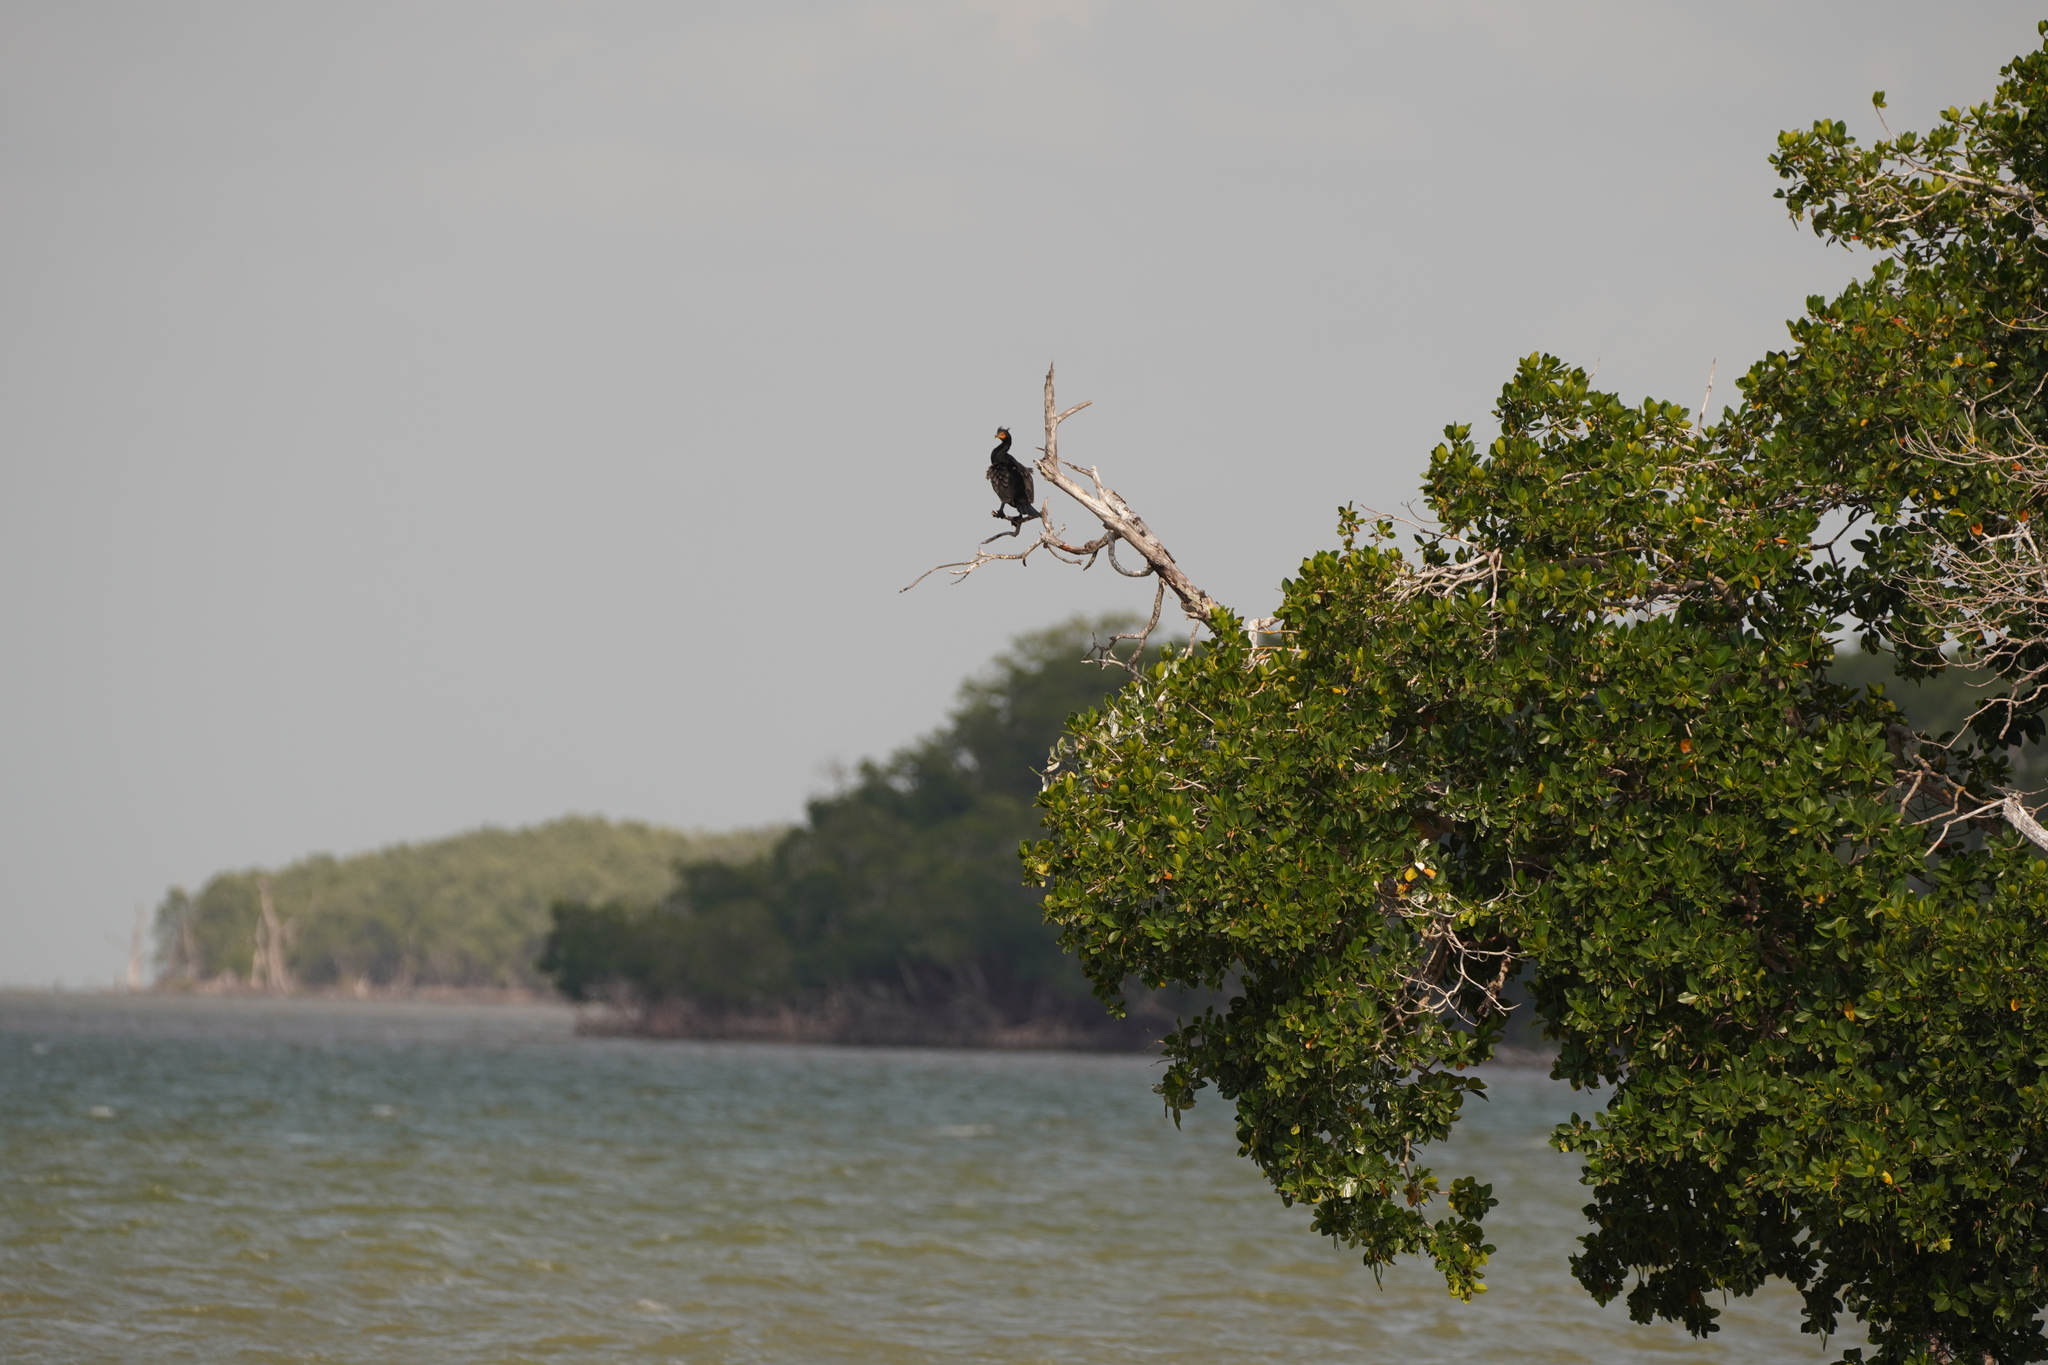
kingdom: Animalia
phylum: Chordata
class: Aves
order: Suliformes
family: Phalacrocoracidae
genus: Phalacrocorax
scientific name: Phalacrocorax auritus
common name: Double-crested cormorant
